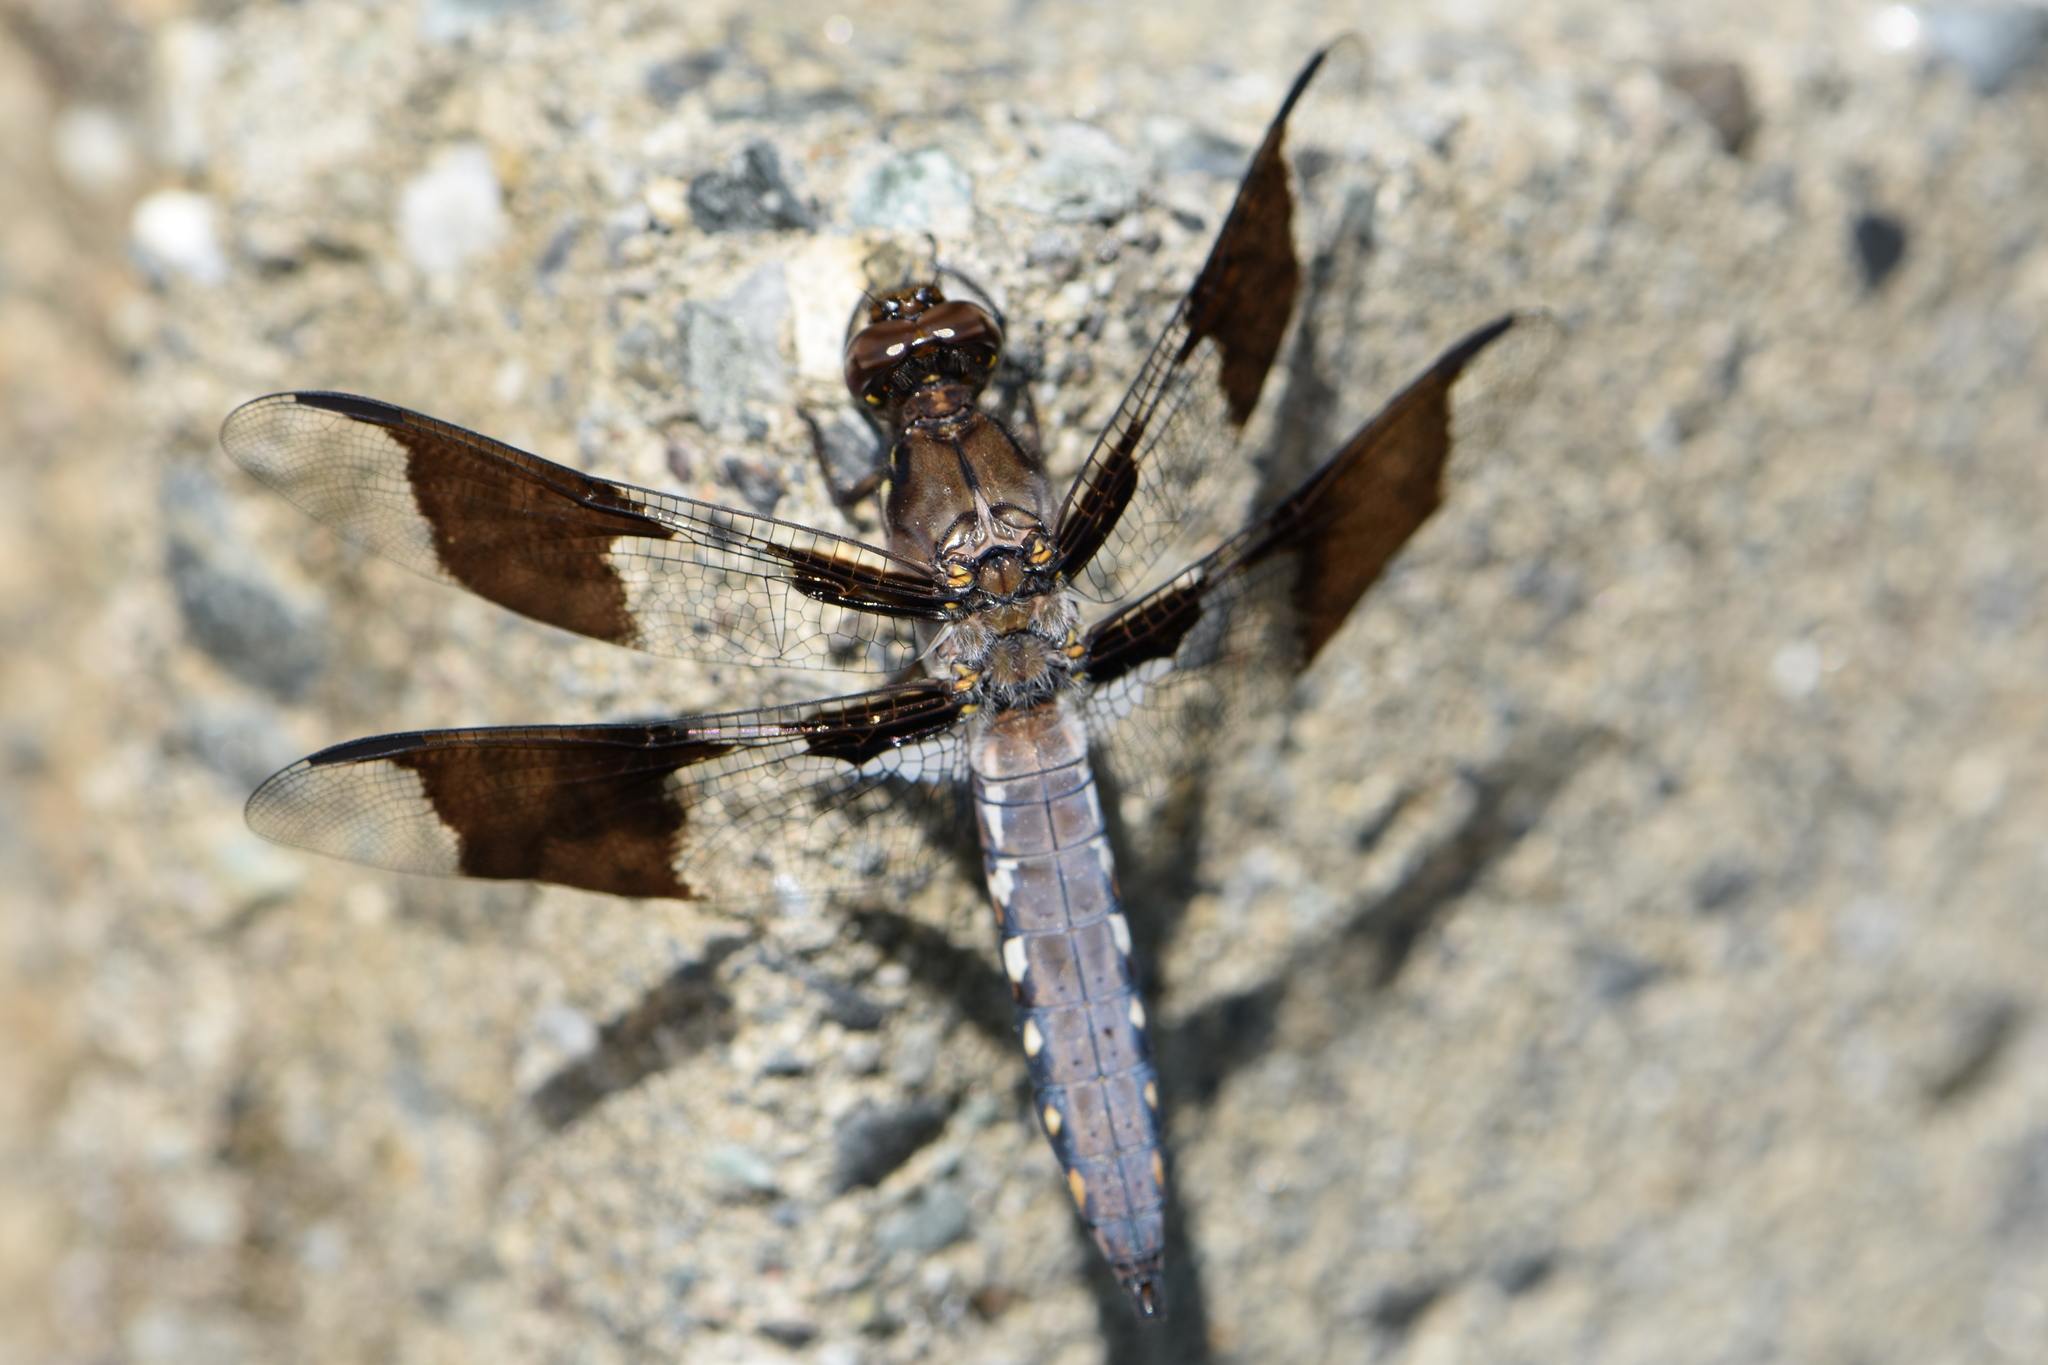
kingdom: Animalia
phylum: Arthropoda
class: Insecta
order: Odonata
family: Libellulidae
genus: Plathemis
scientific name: Plathemis lydia
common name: Common whitetail
